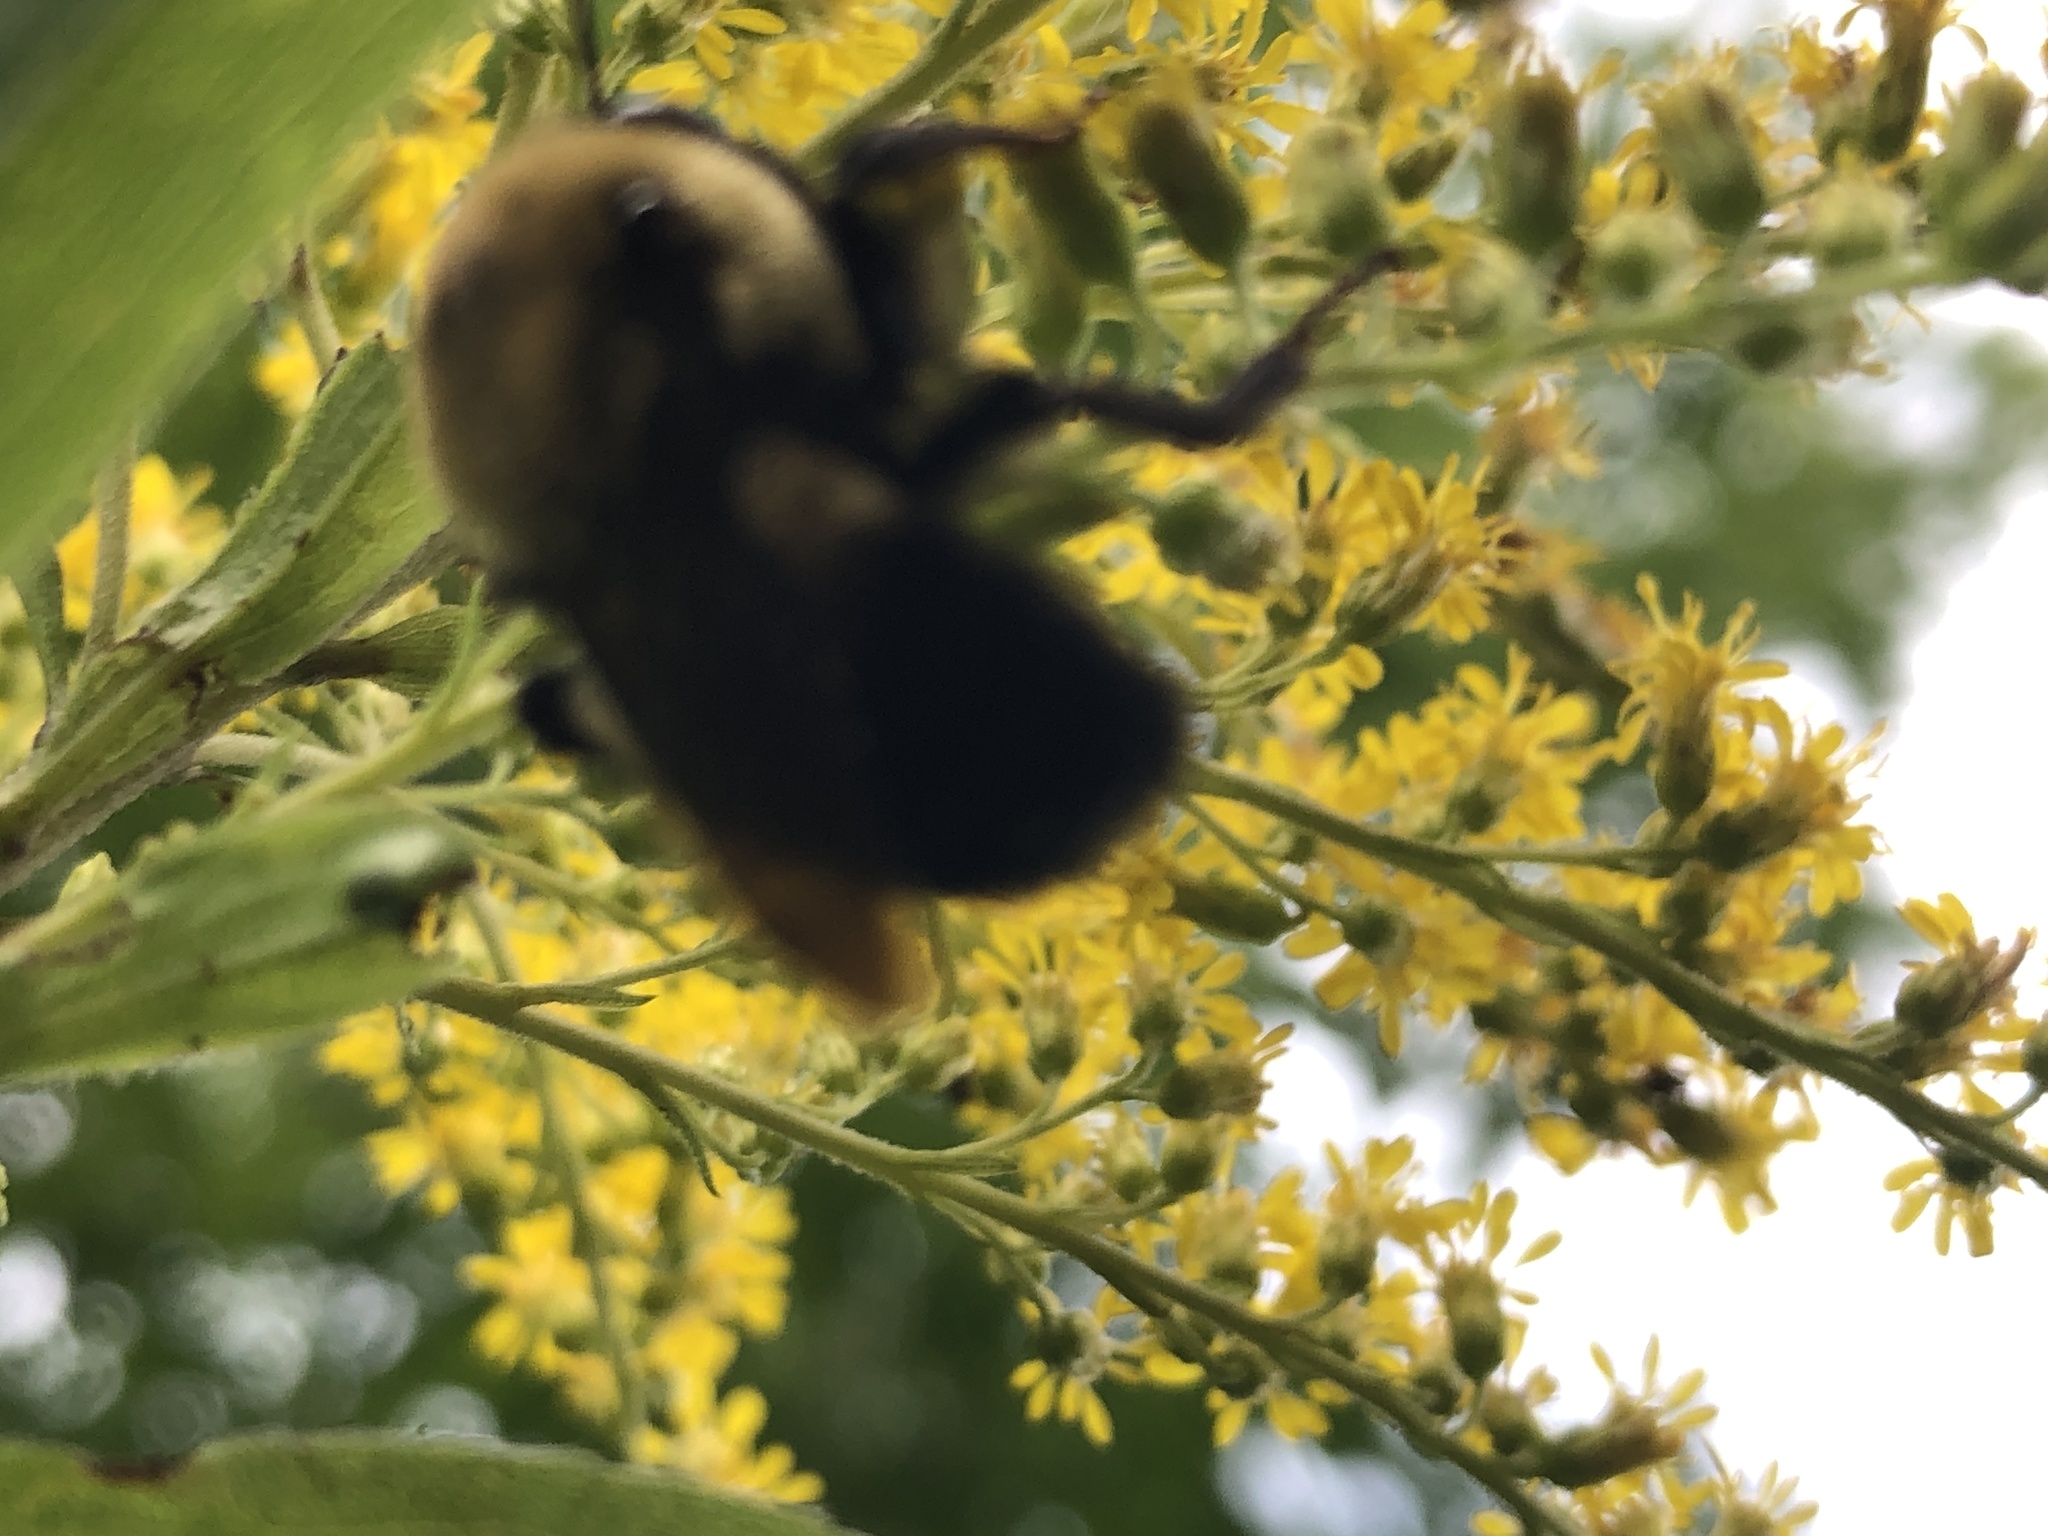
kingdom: Animalia
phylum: Arthropoda
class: Insecta
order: Hymenoptera
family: Apidae
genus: Bombus
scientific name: Bombus griseocollis
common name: Brown-belted bumble bee
